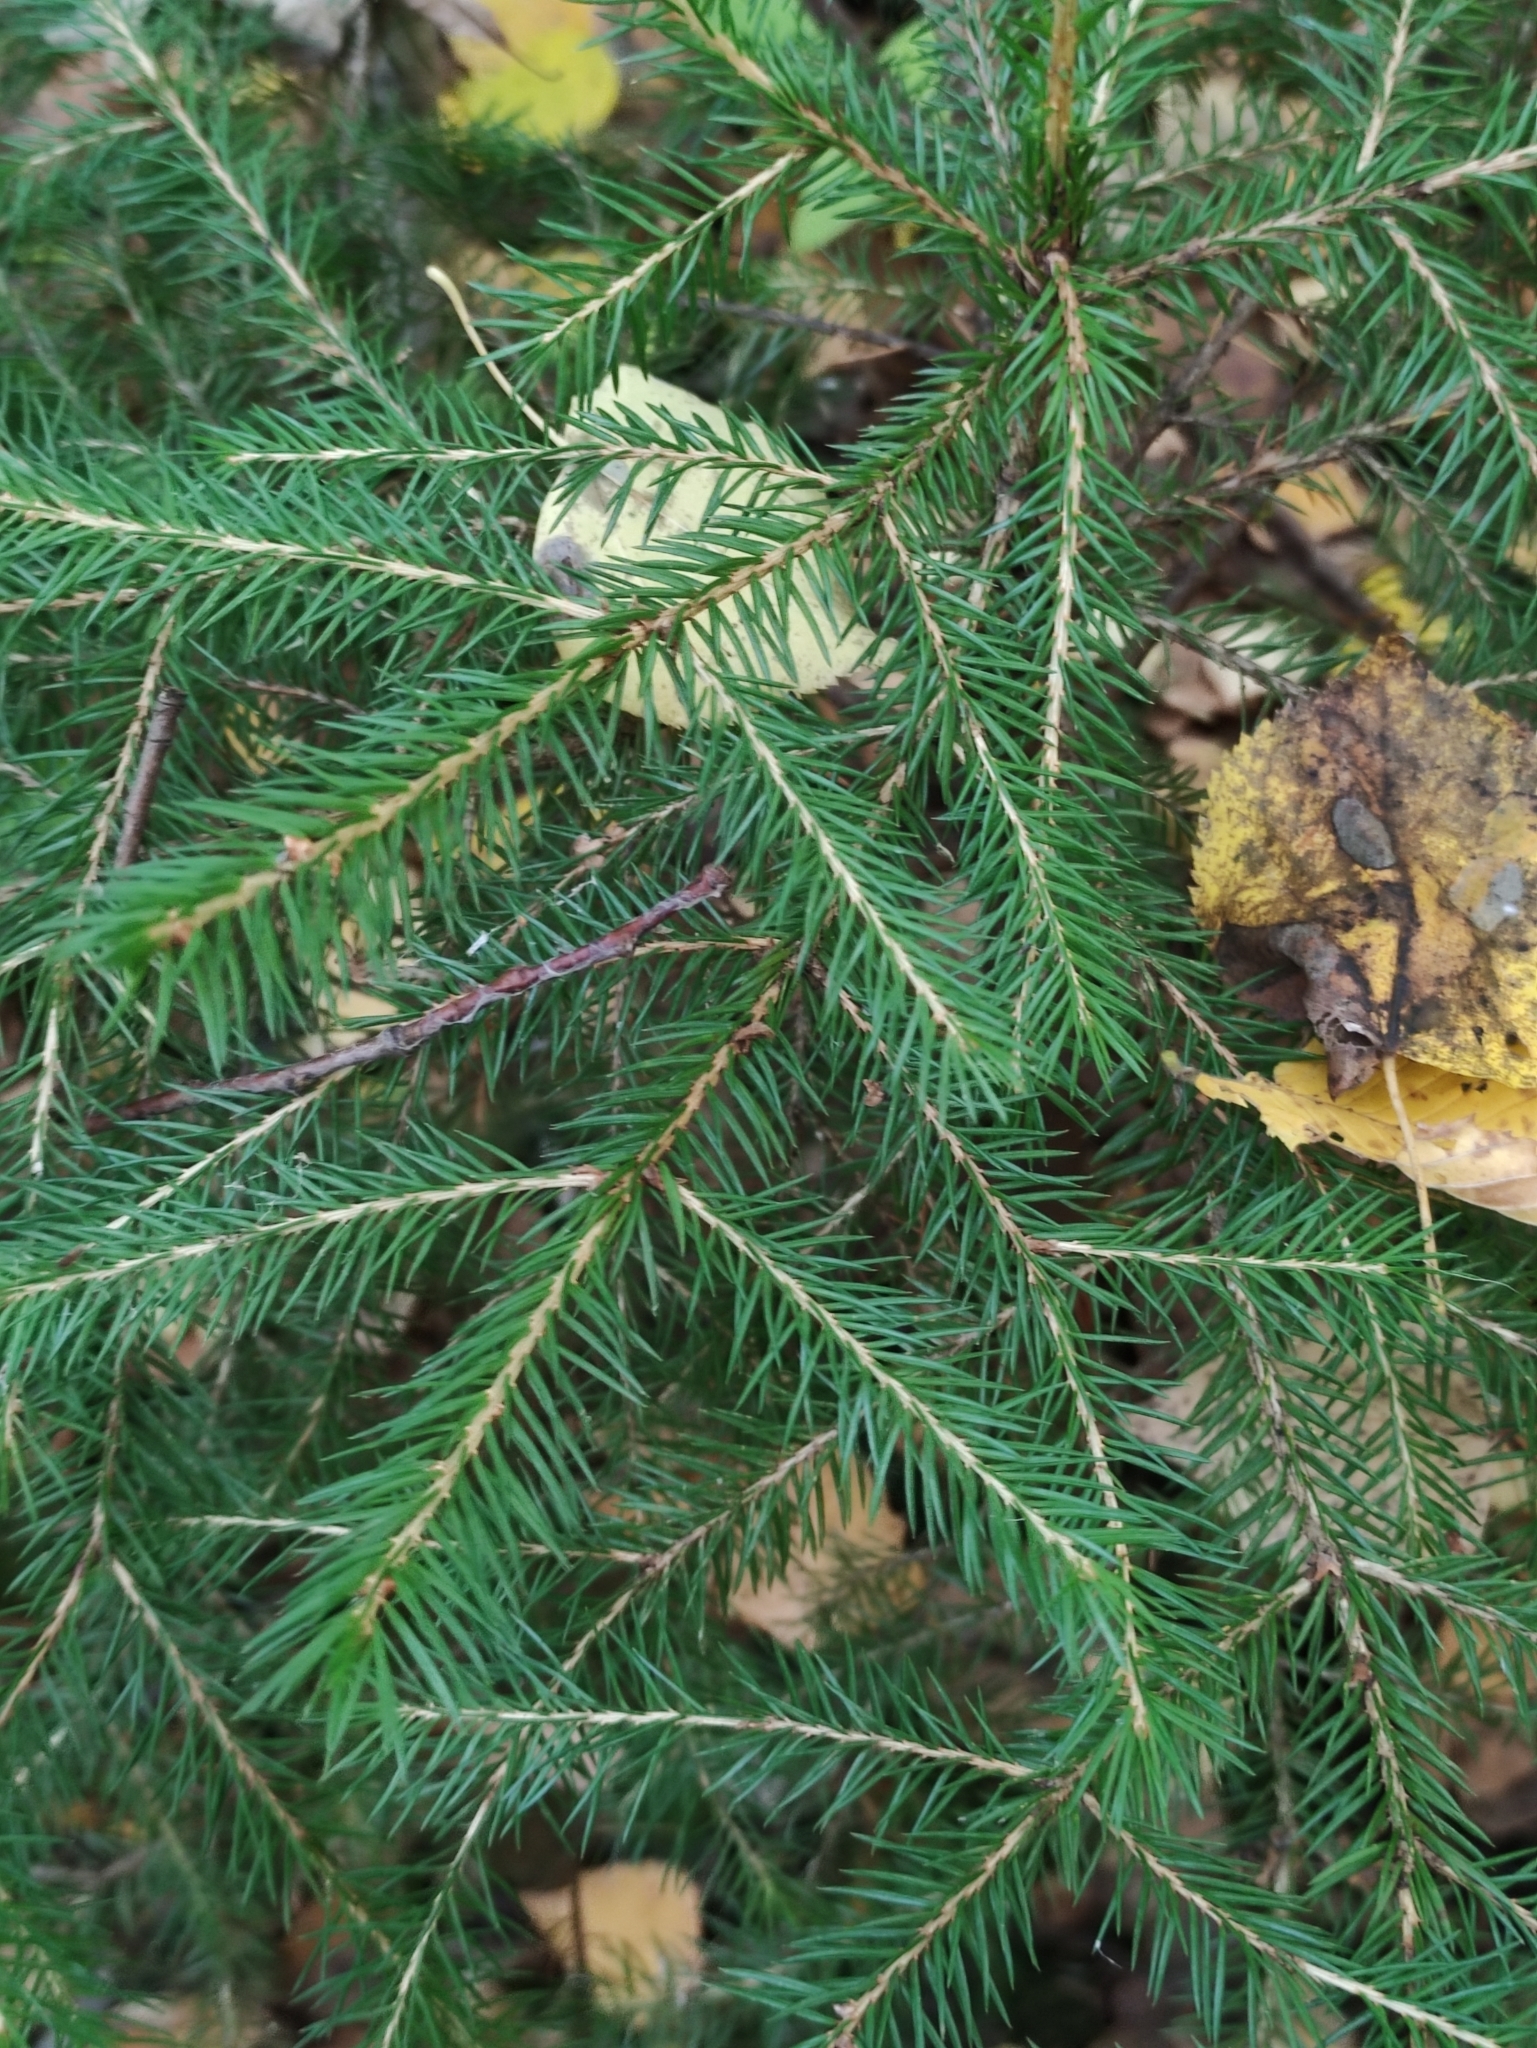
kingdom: Plantae
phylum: Tracheophyta
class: Pinopsida
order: Pinales
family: Pinaceae
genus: Picea
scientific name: Picea abies
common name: Norway spruce
